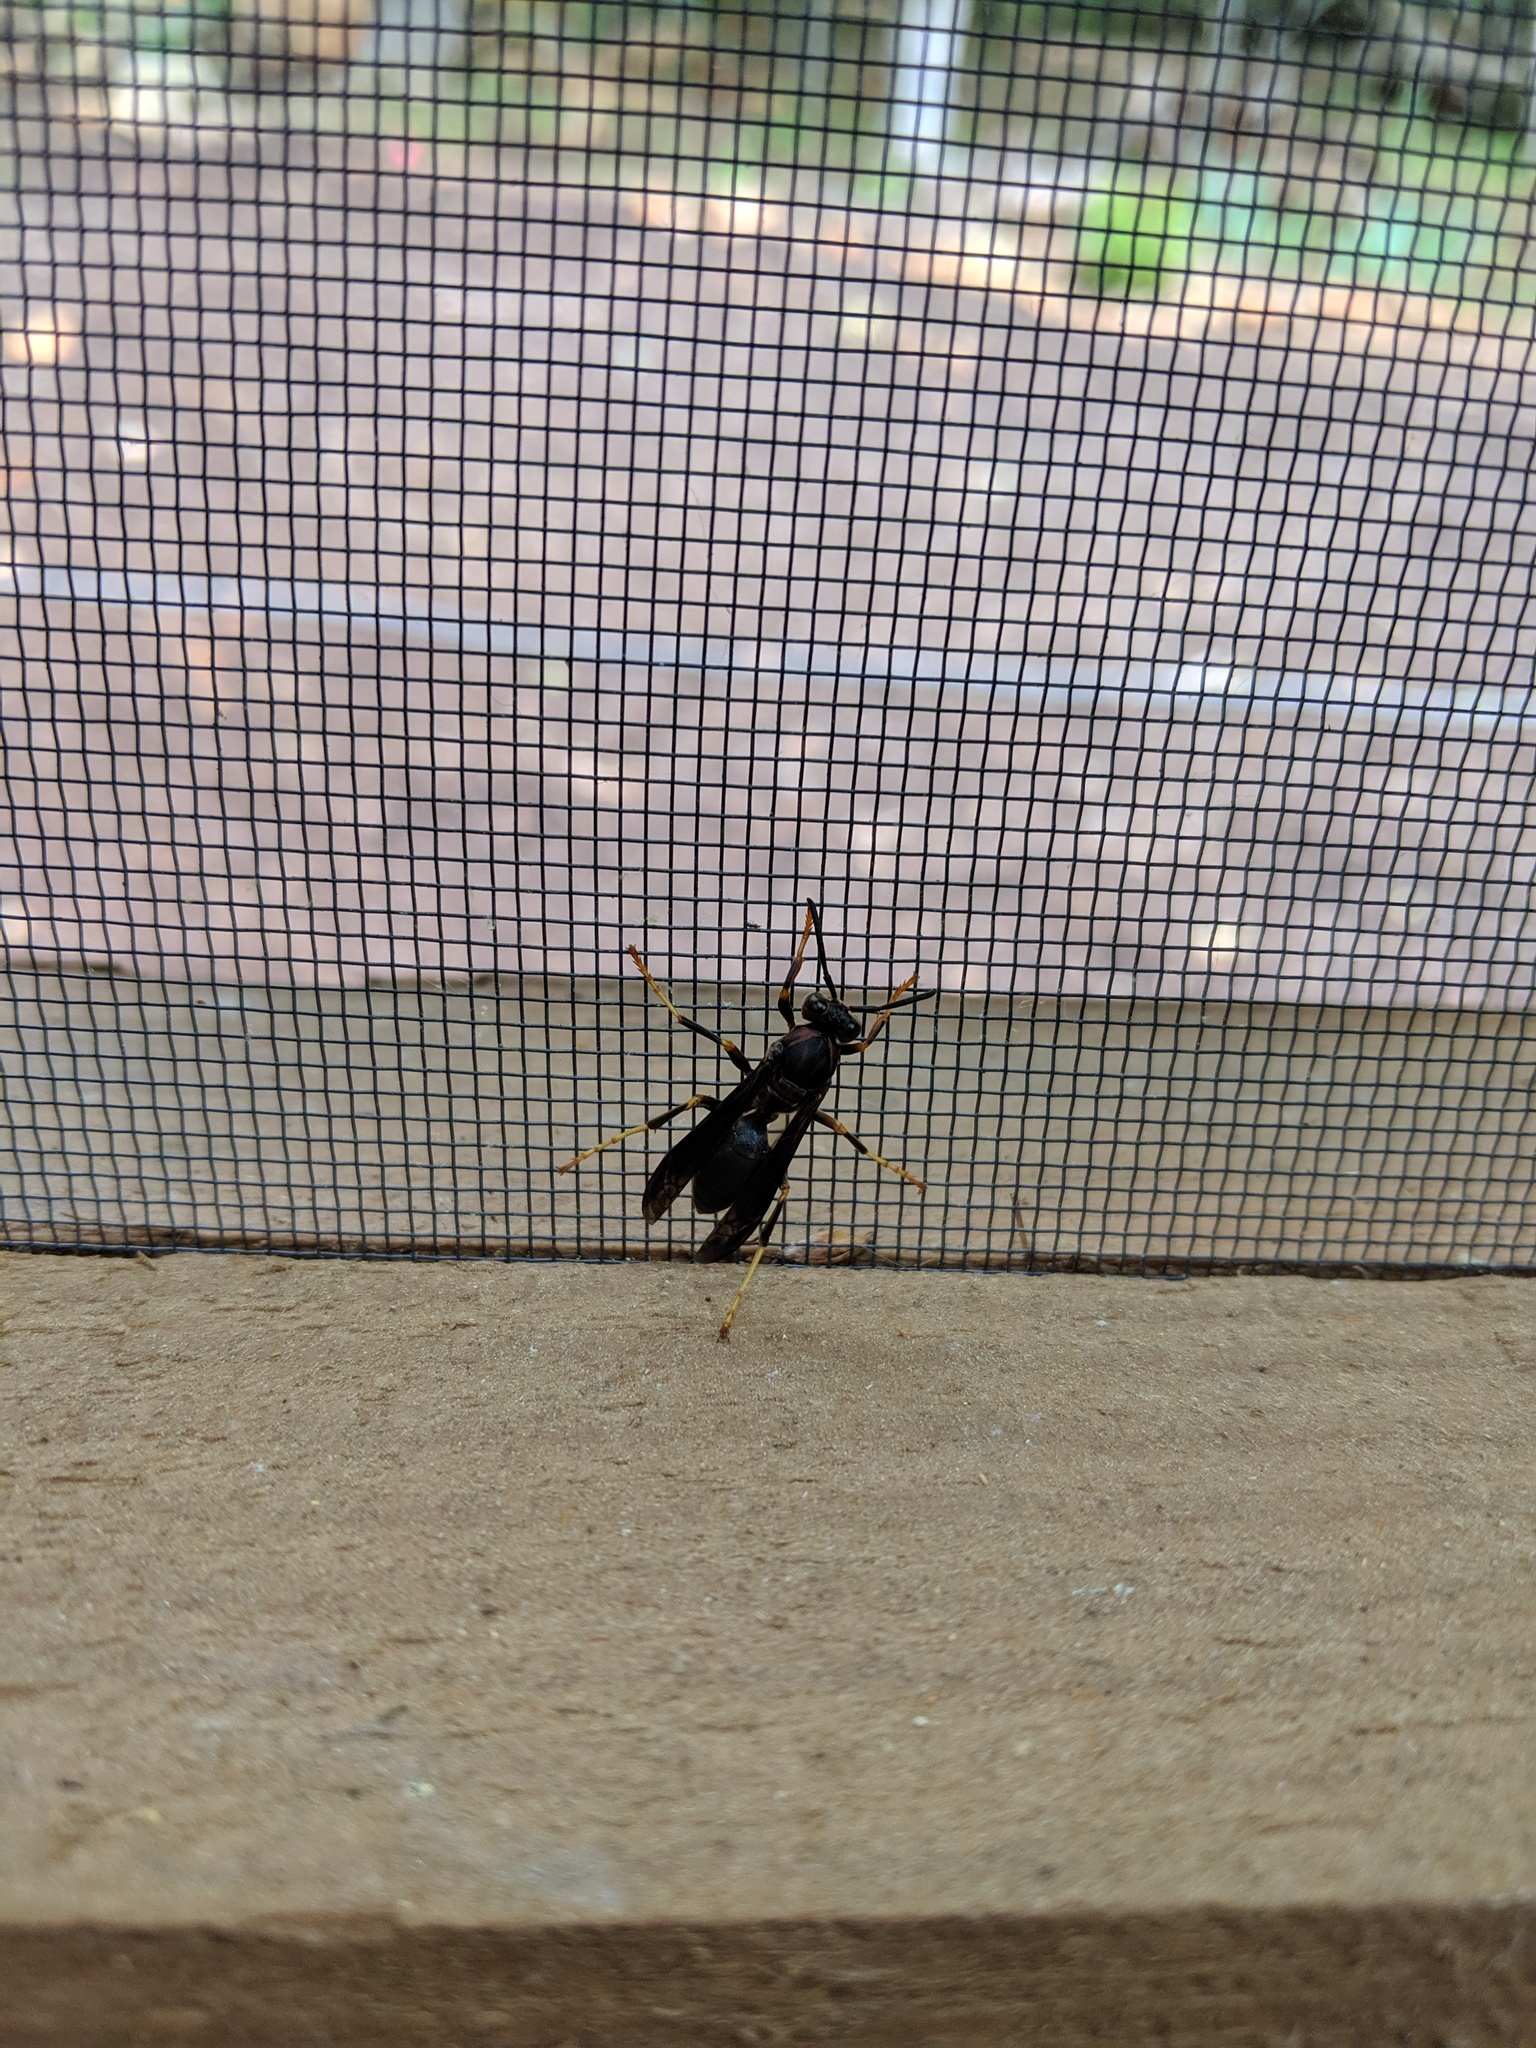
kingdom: Animalia
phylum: Arthropoda
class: Insecta
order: Hymenoptera
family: Eumenidae
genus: Polistes
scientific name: Polistes metricus
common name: Metric paper wasp
